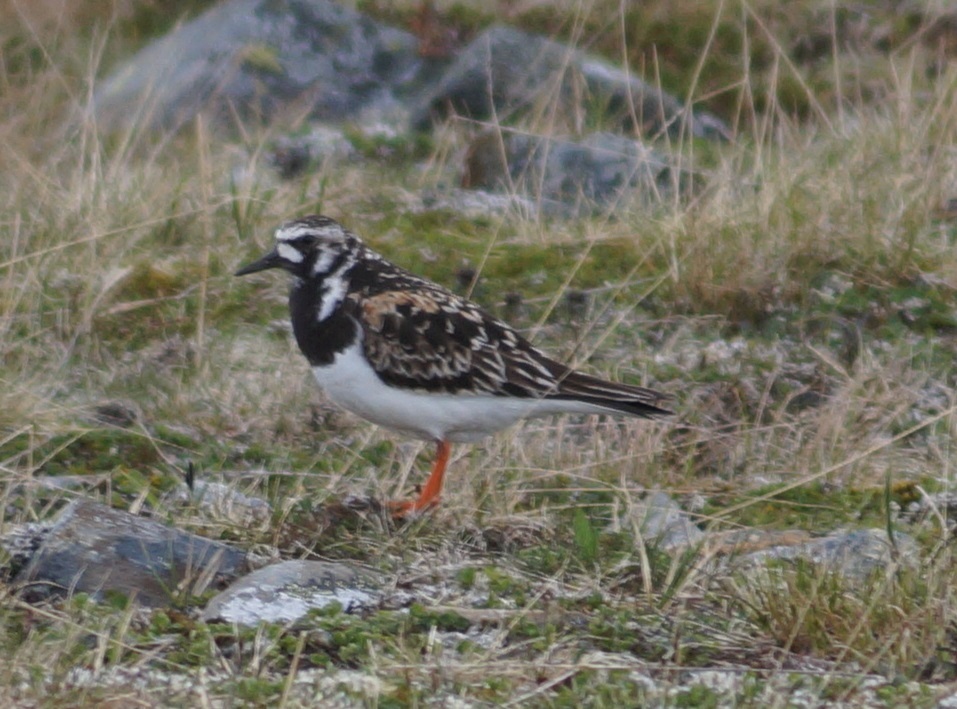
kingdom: Animalia
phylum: Chordata
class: Aves
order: Charadriiformes
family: Scolopacidae
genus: Arenaria
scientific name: Arenaria interpres
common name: Ruddy turnstone
